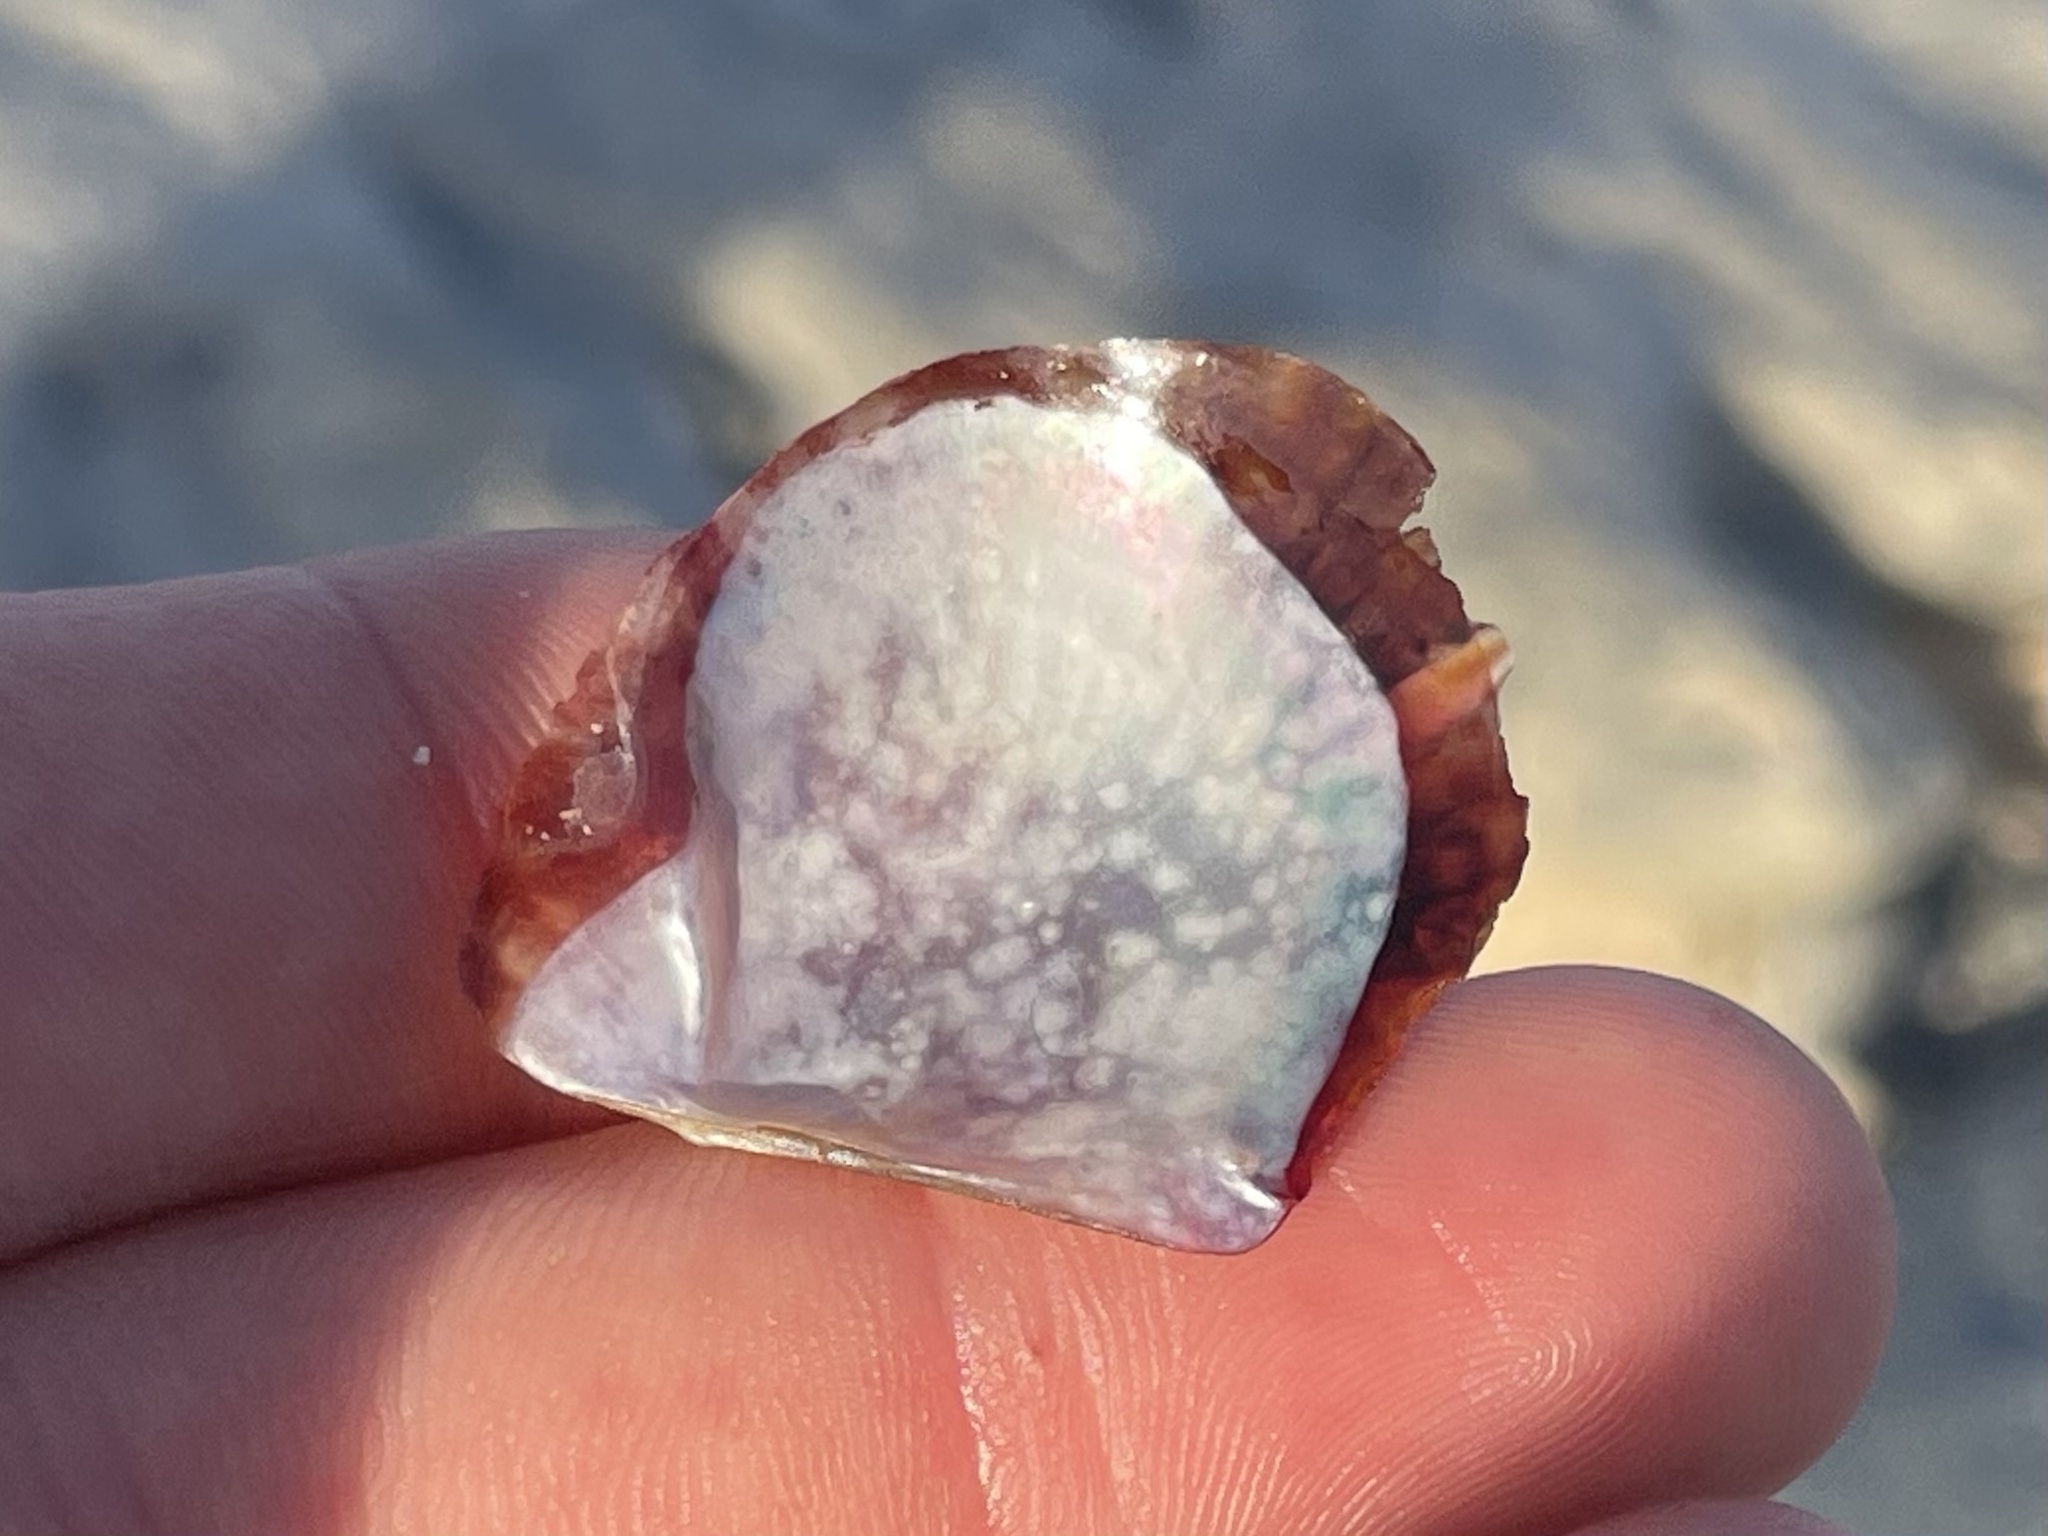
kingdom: Animalia
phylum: Mollusca
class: Bivalvia
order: Ostreida
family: Margaritidae
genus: Pinctada
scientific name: Pinctada imbricata
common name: Atlantic pearl-oyster
